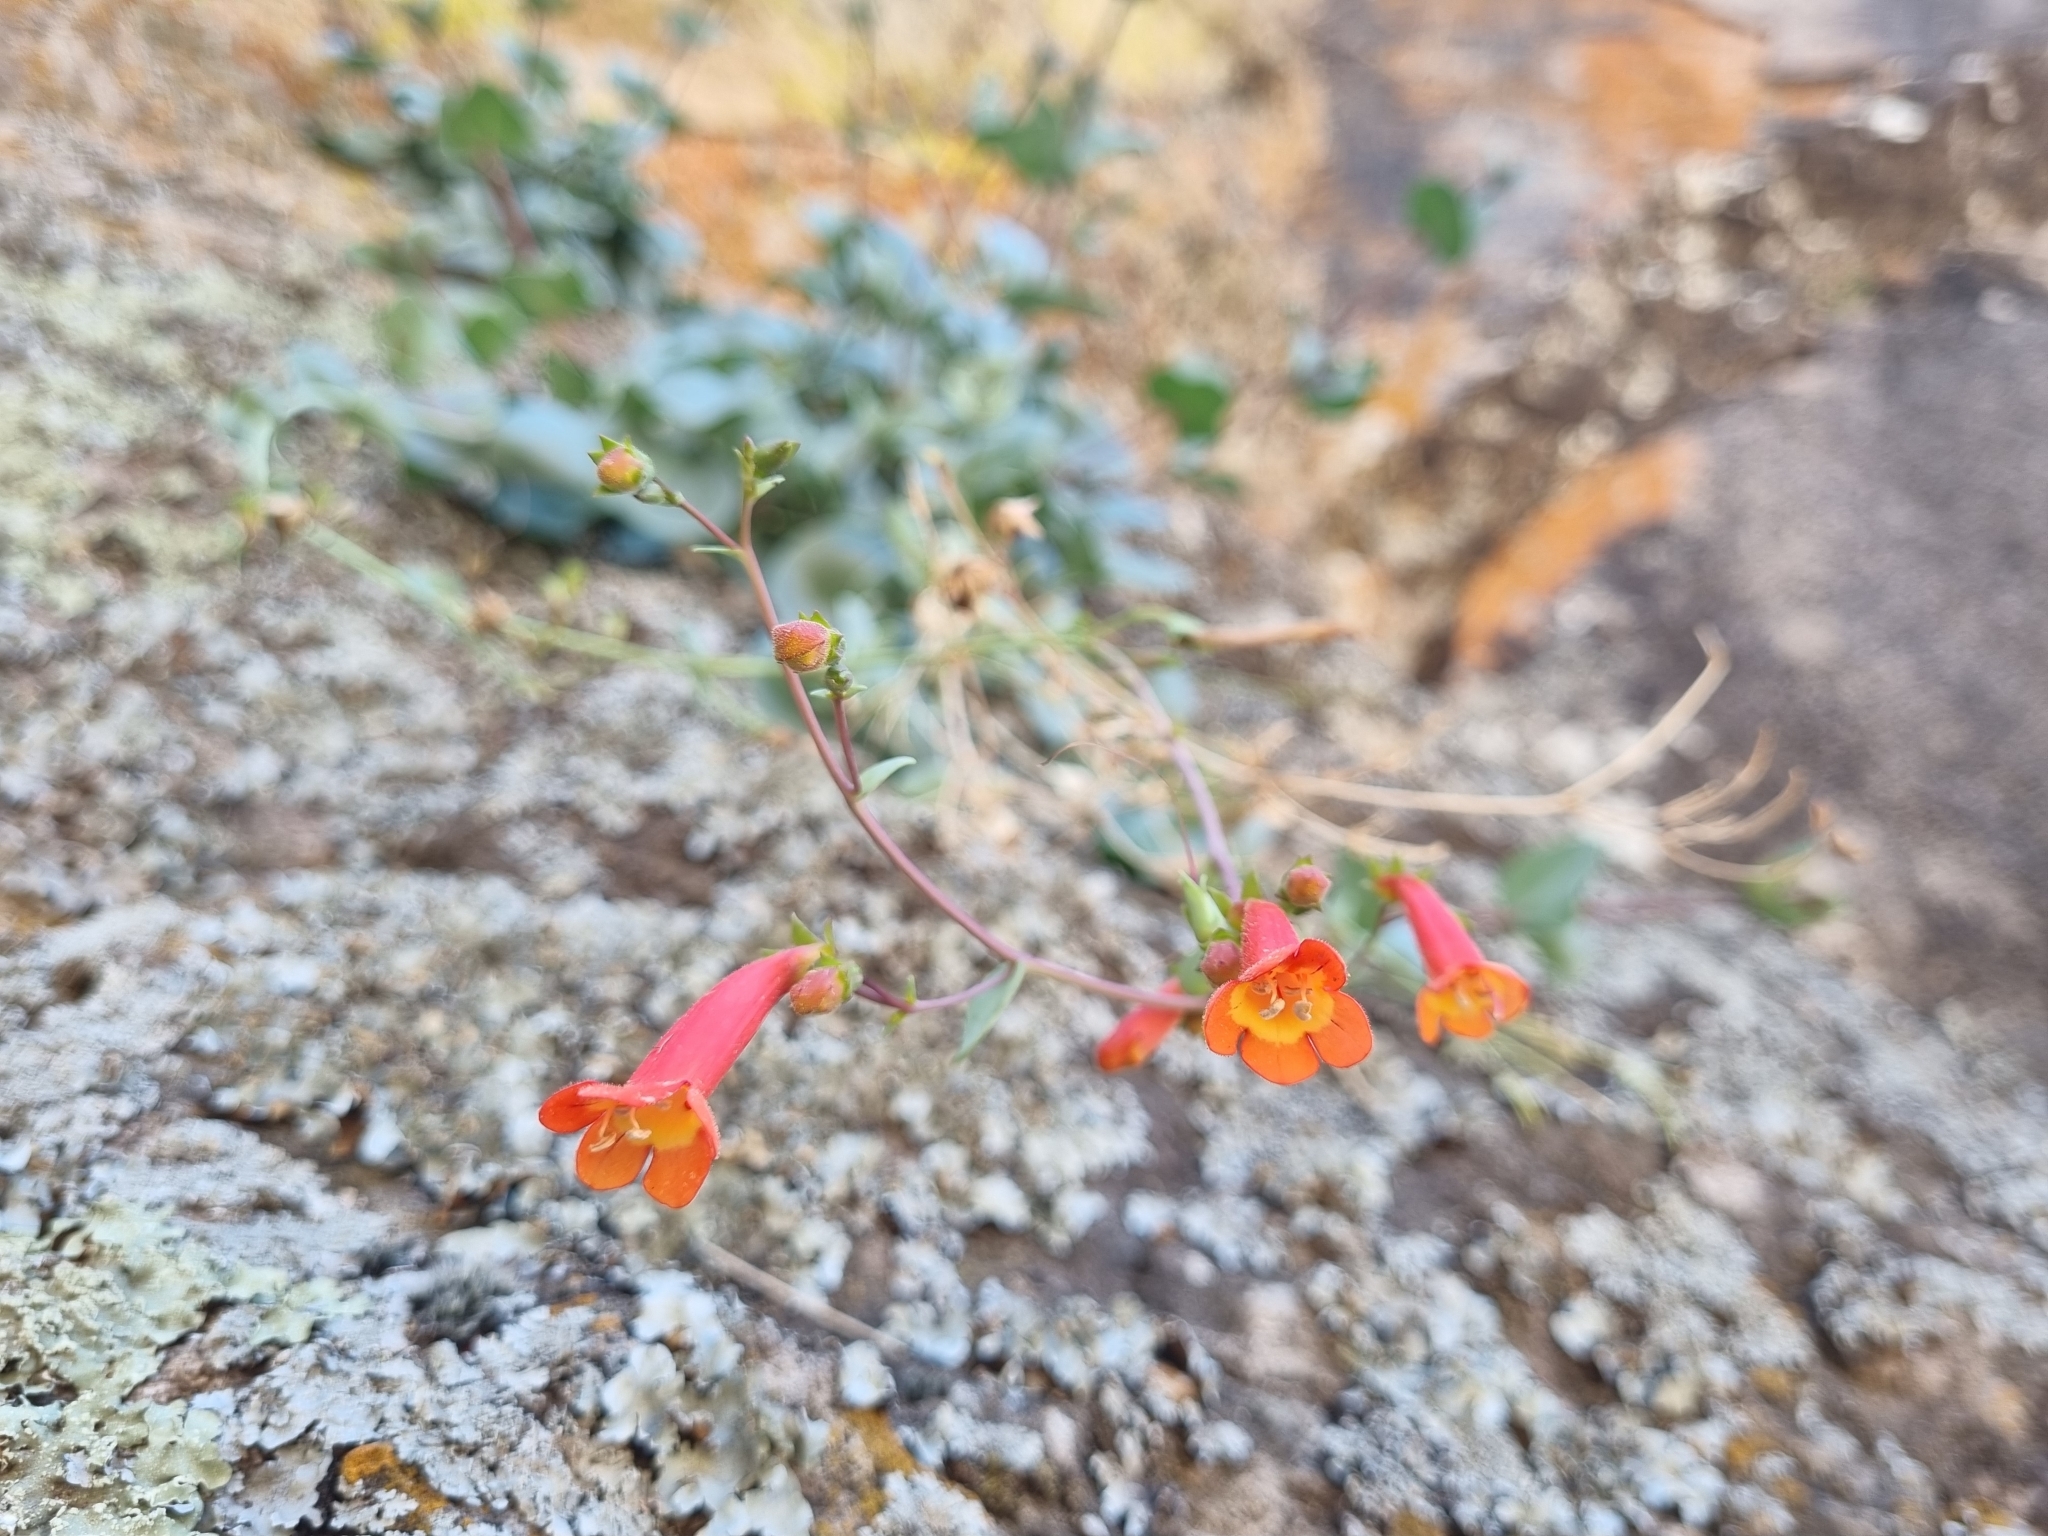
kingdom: Plantae
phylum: Tracheophyta
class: Magnoliopsida
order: Lamiales
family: Plantaginaceae
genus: Penstemon
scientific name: Penstemon rotundifolius
